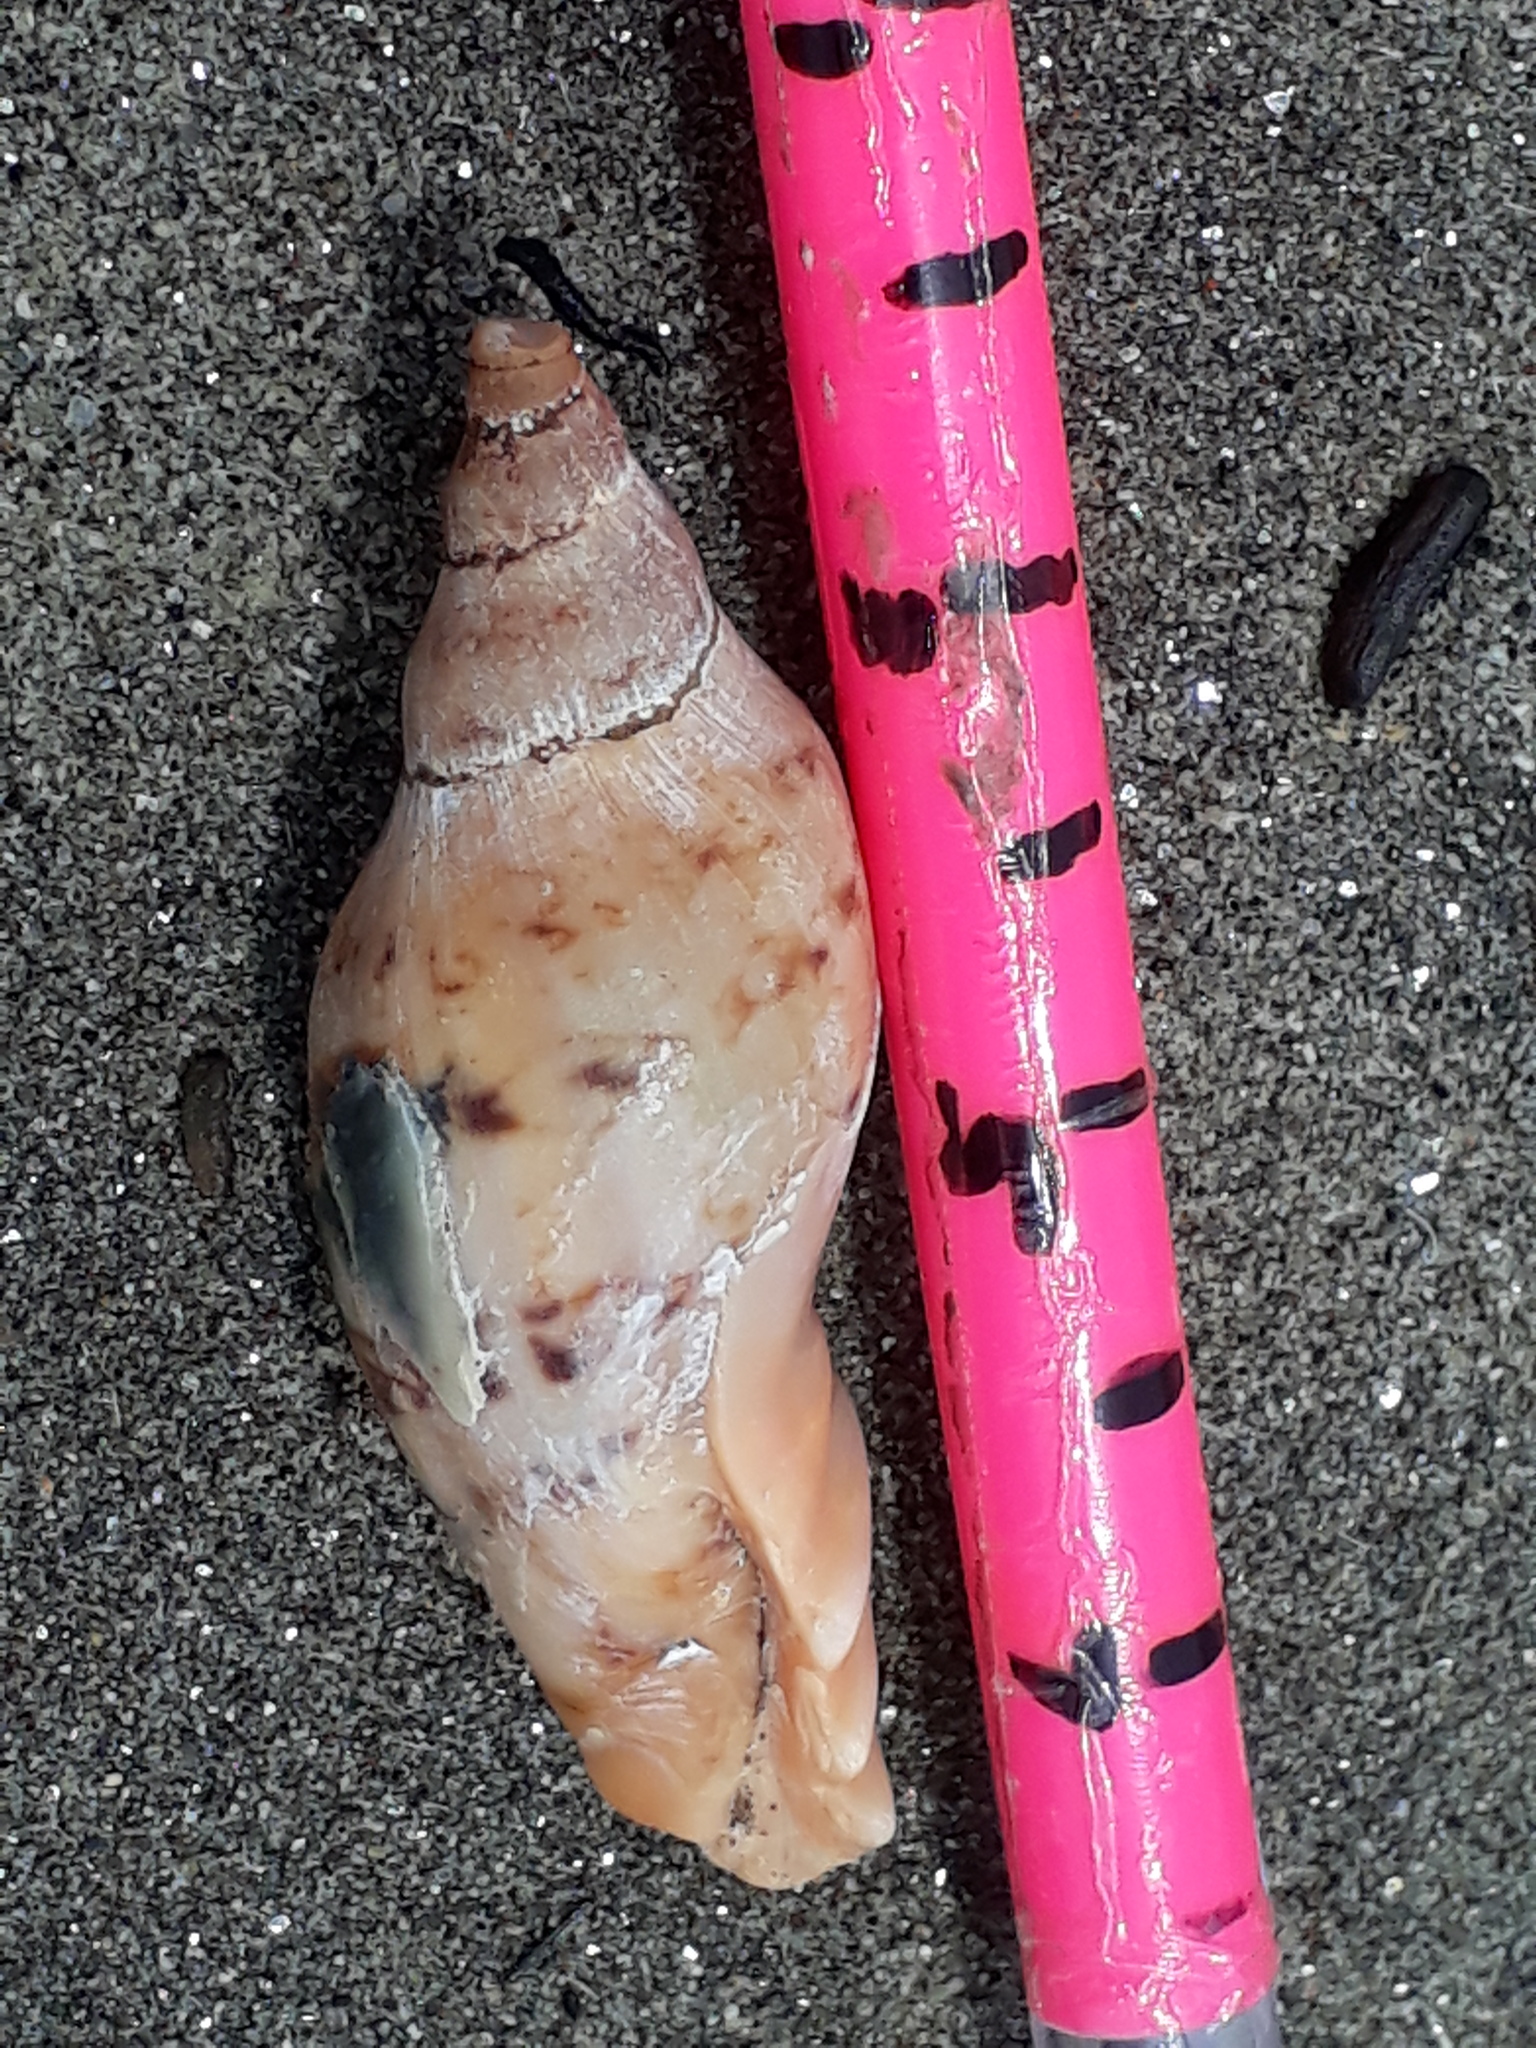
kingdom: Animalia
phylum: Mollusca
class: Gastropoda
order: Neogastropoda
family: Volutidae
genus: Alcithoe
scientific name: Alcithoe arabica
